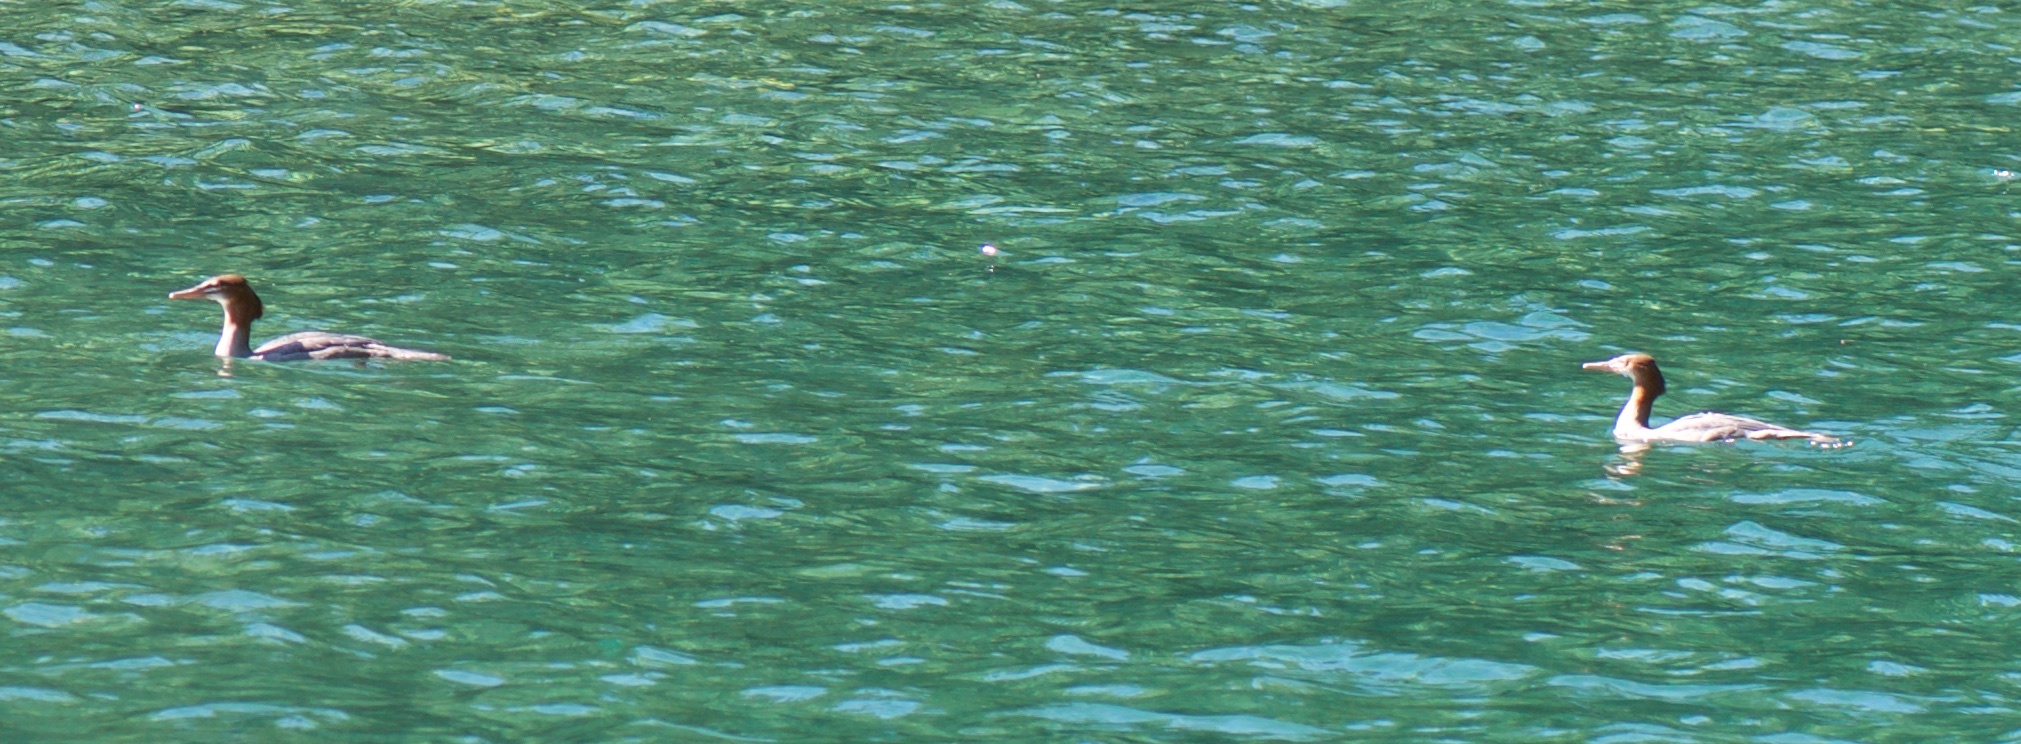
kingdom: Animalia
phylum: Chordata
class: Aves
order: Anseriformes
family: Anatidae
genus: Mergus
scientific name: Mergus merganser
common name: Common merganser
